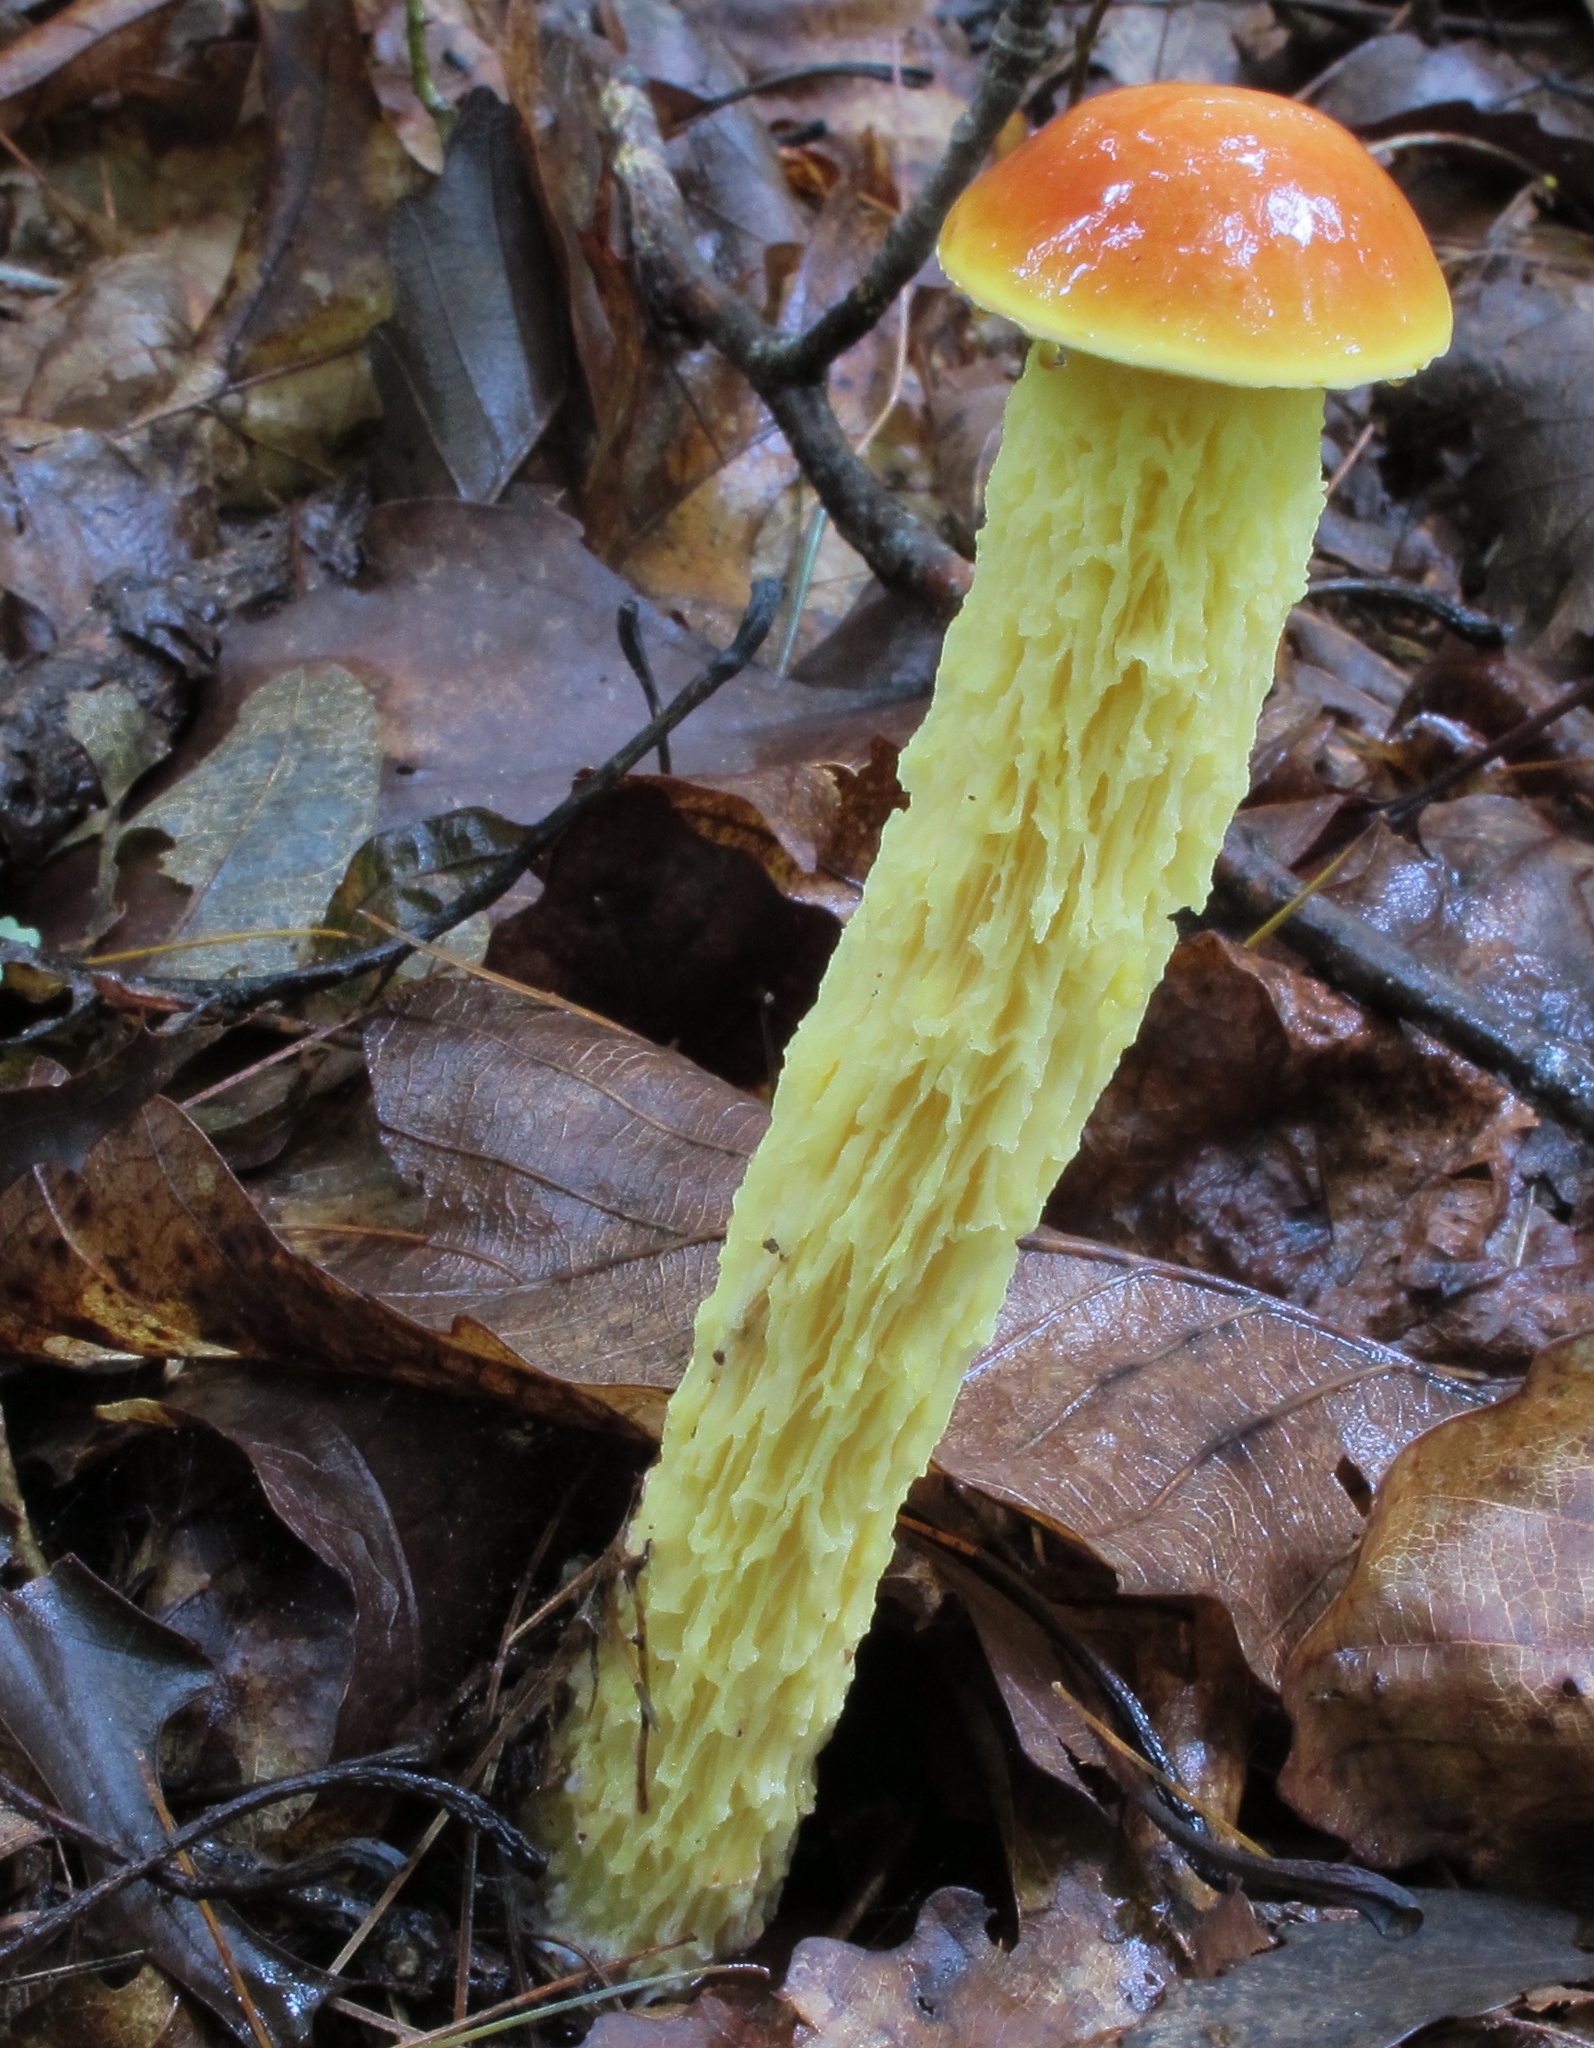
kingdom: Fungi
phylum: Basidiomycota
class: Agaricomycetes
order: Boletales
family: Boletaceae
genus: Aureoboletus
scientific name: Aureoboletus betula
